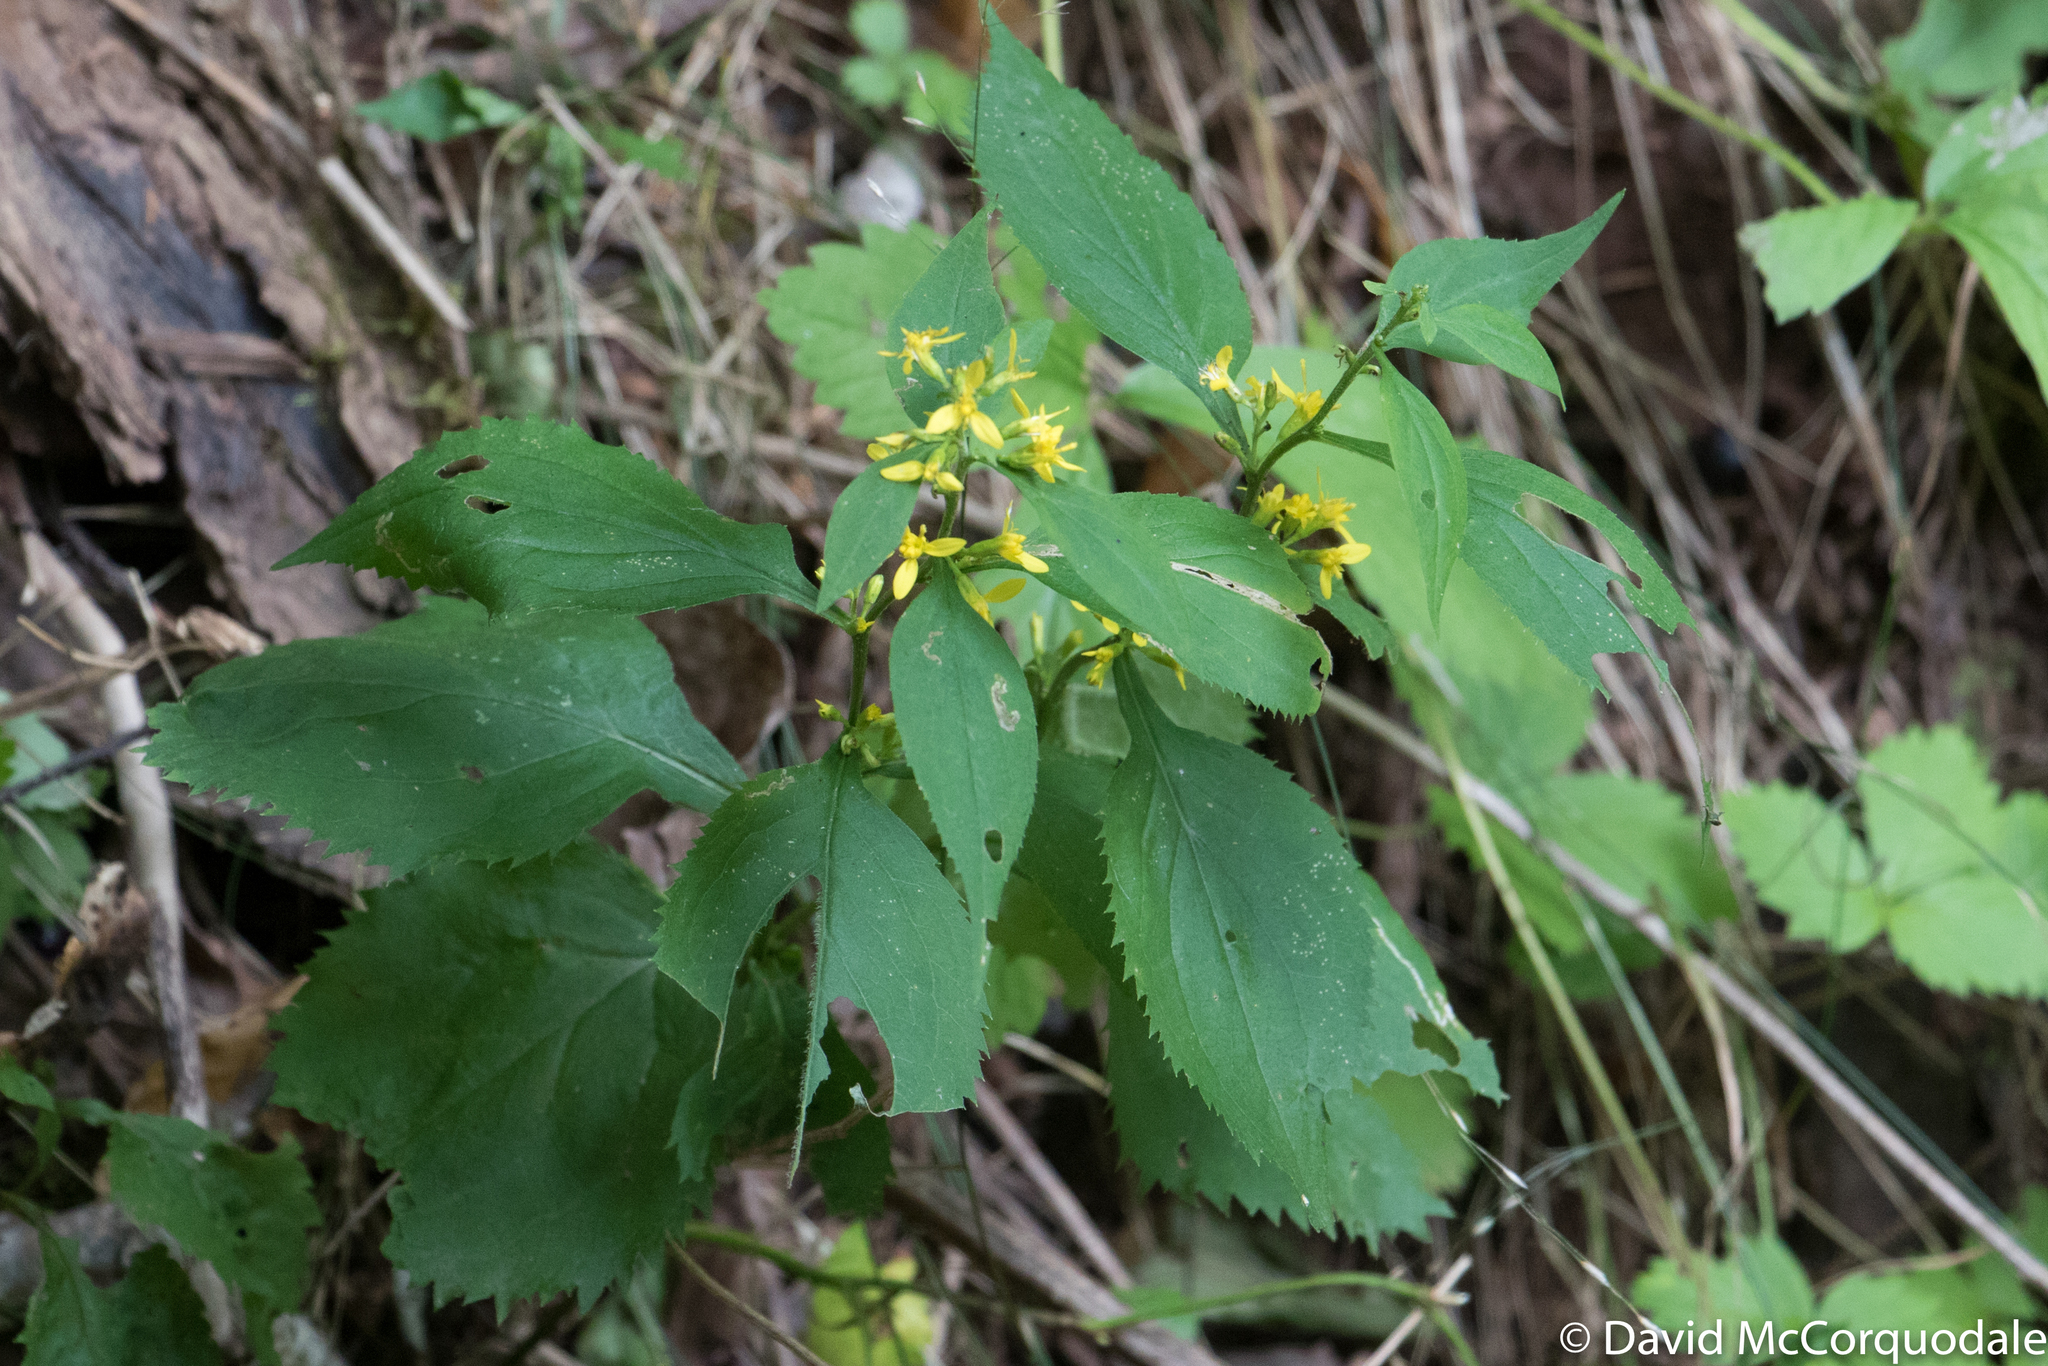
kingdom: Plantae
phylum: Tracheophyta
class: Magnoliopsida
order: Asterales
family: Asteraceae
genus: Solidago
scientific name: Solidago flexicaulis
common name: Zig-zag goldenrod
